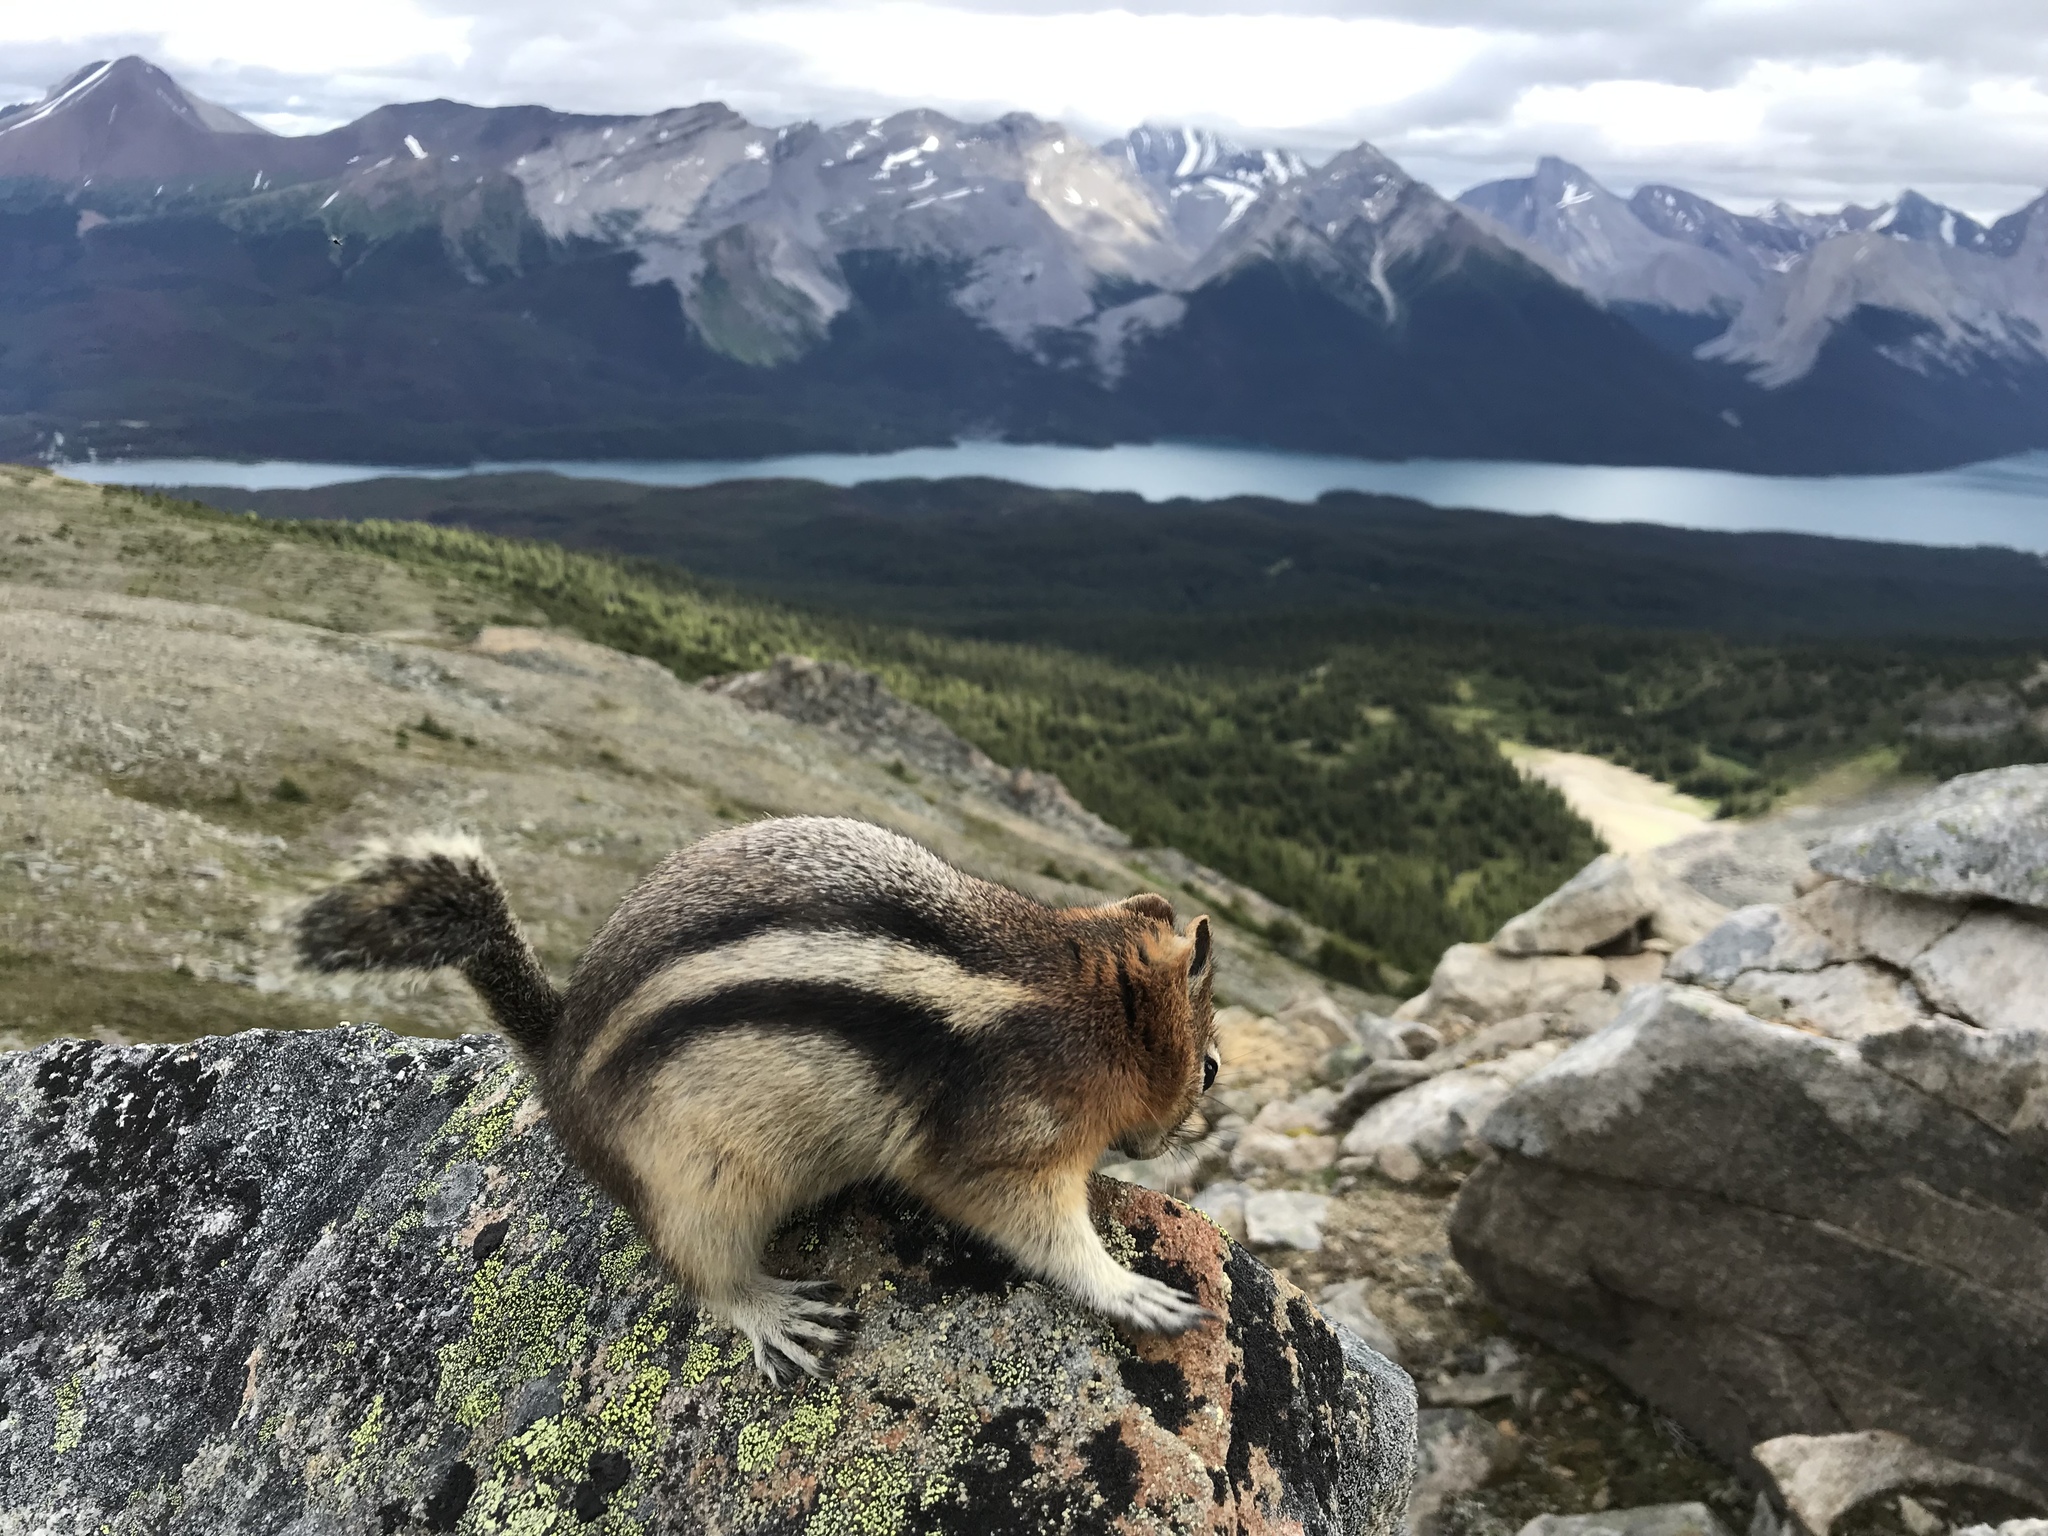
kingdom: Animalia
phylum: Chordata
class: Mammalia
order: Rodentia
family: Sciuridae
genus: Callospermophilus
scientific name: Callospermophilus lateralis
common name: Golden-mantled ground squirrel
